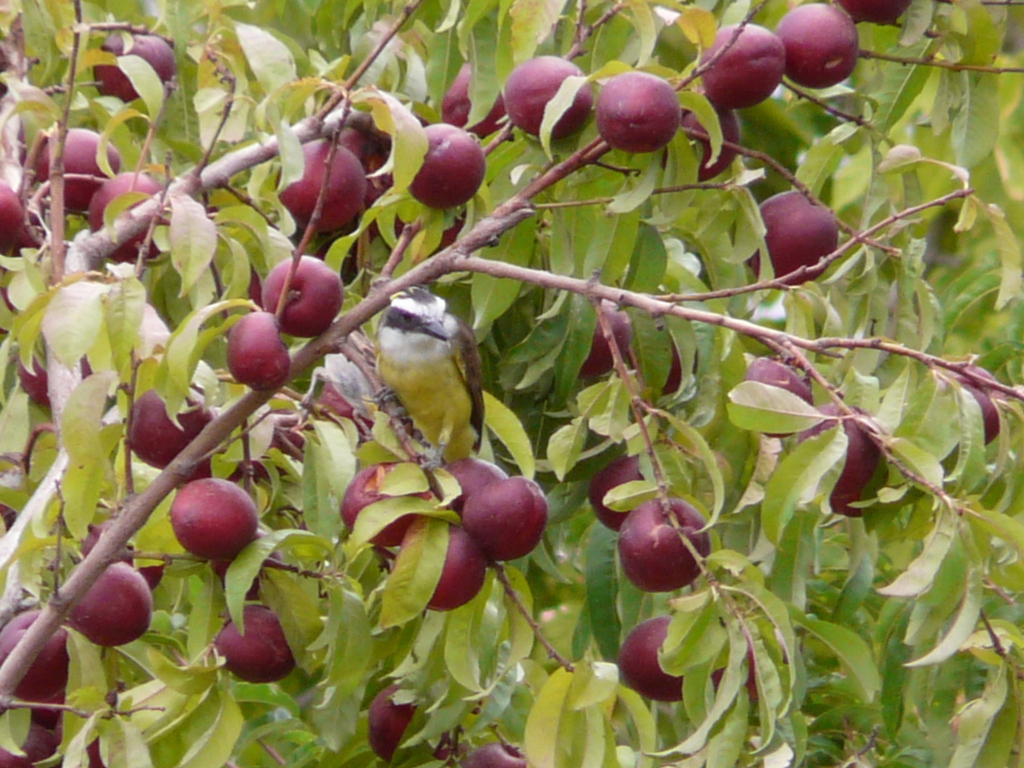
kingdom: Animalia
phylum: Chordata
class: Aves
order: Passeriformes
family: Tyrannidae
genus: Pitangus
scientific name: Pitangus sulphuratus
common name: Great kiskadee
